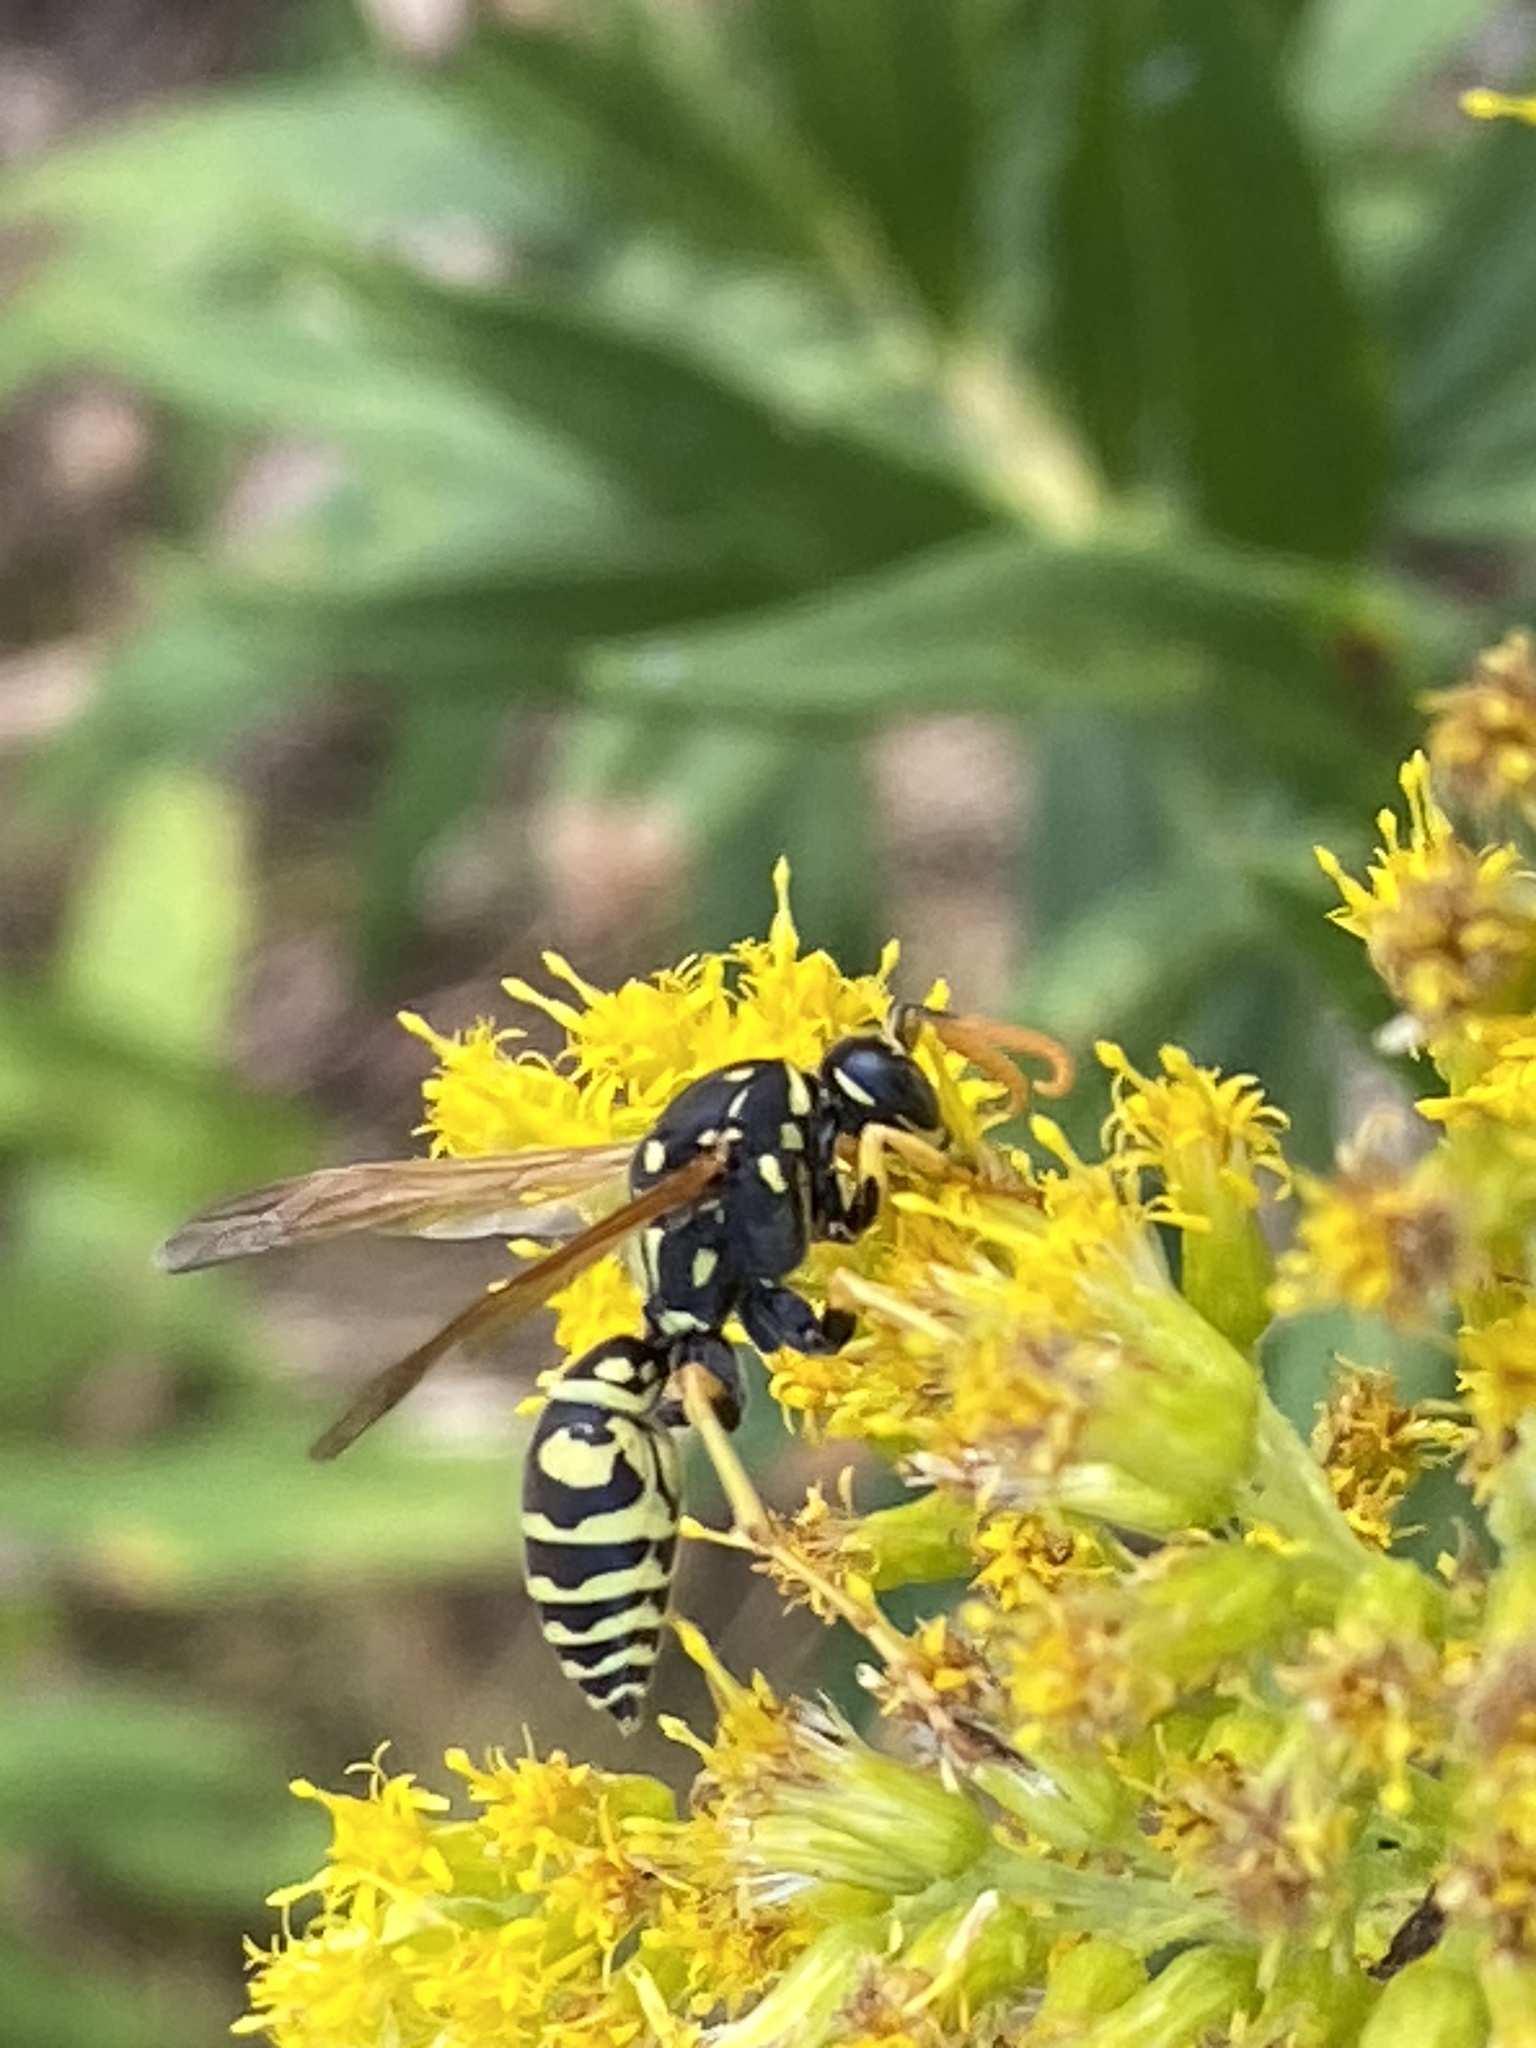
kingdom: Animalia
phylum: Arthropoda
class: Insecta
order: Hymenoptera
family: Eumenidae
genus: Polistes
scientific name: Polistes dominula
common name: Paper wasp
